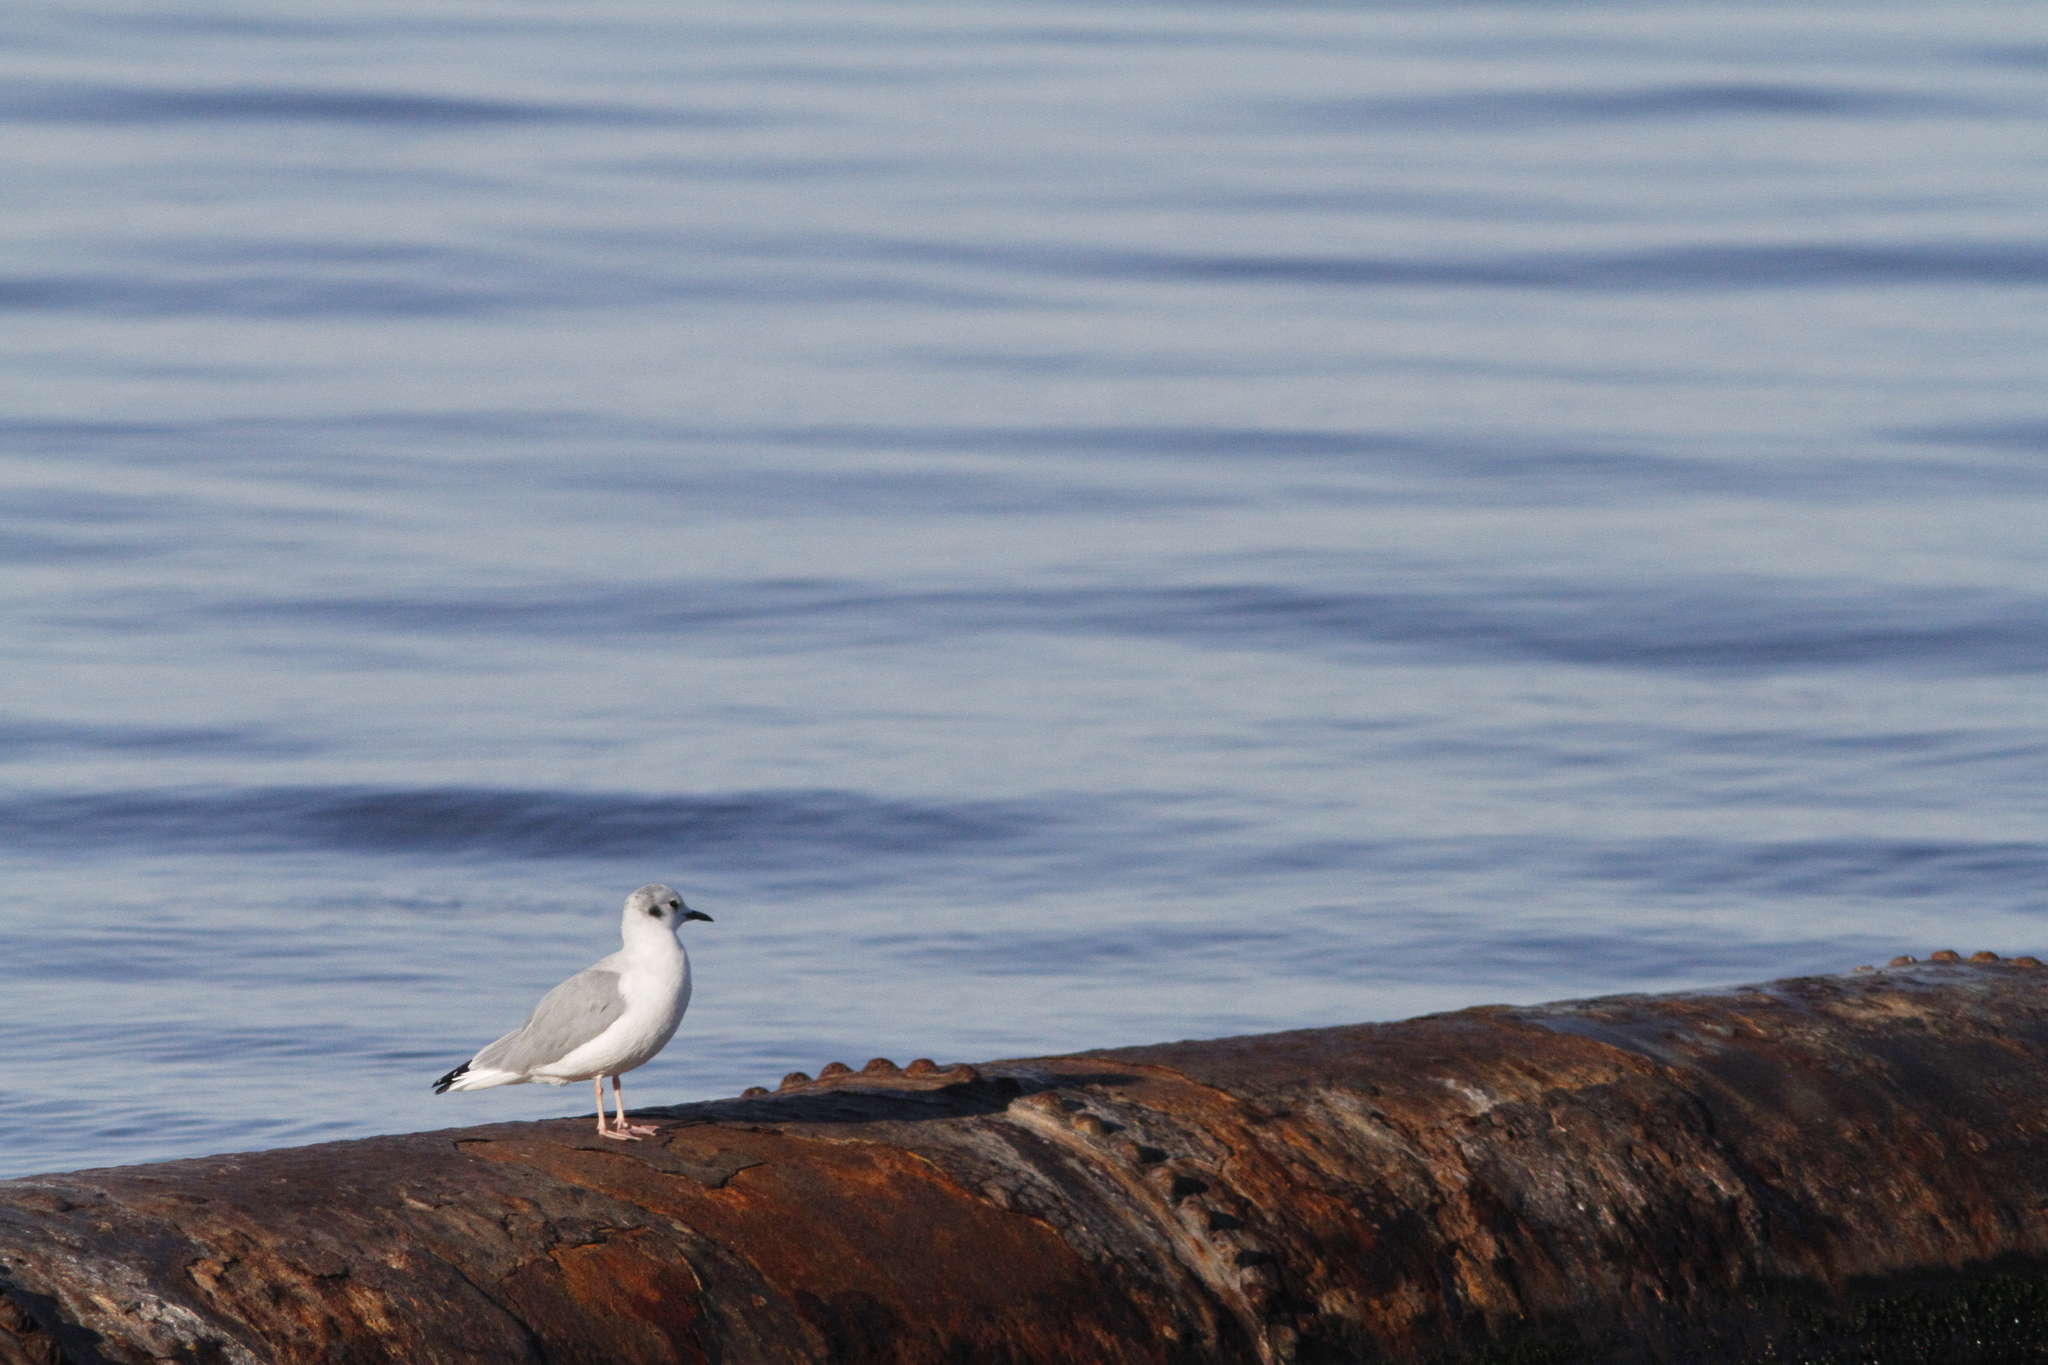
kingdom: Animalia
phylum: Chordata
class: Aves
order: Charadriiformes
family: Laridae
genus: Chroicocephalus
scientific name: Chroicocephalus philadelphia
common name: Bonaparte's gull
